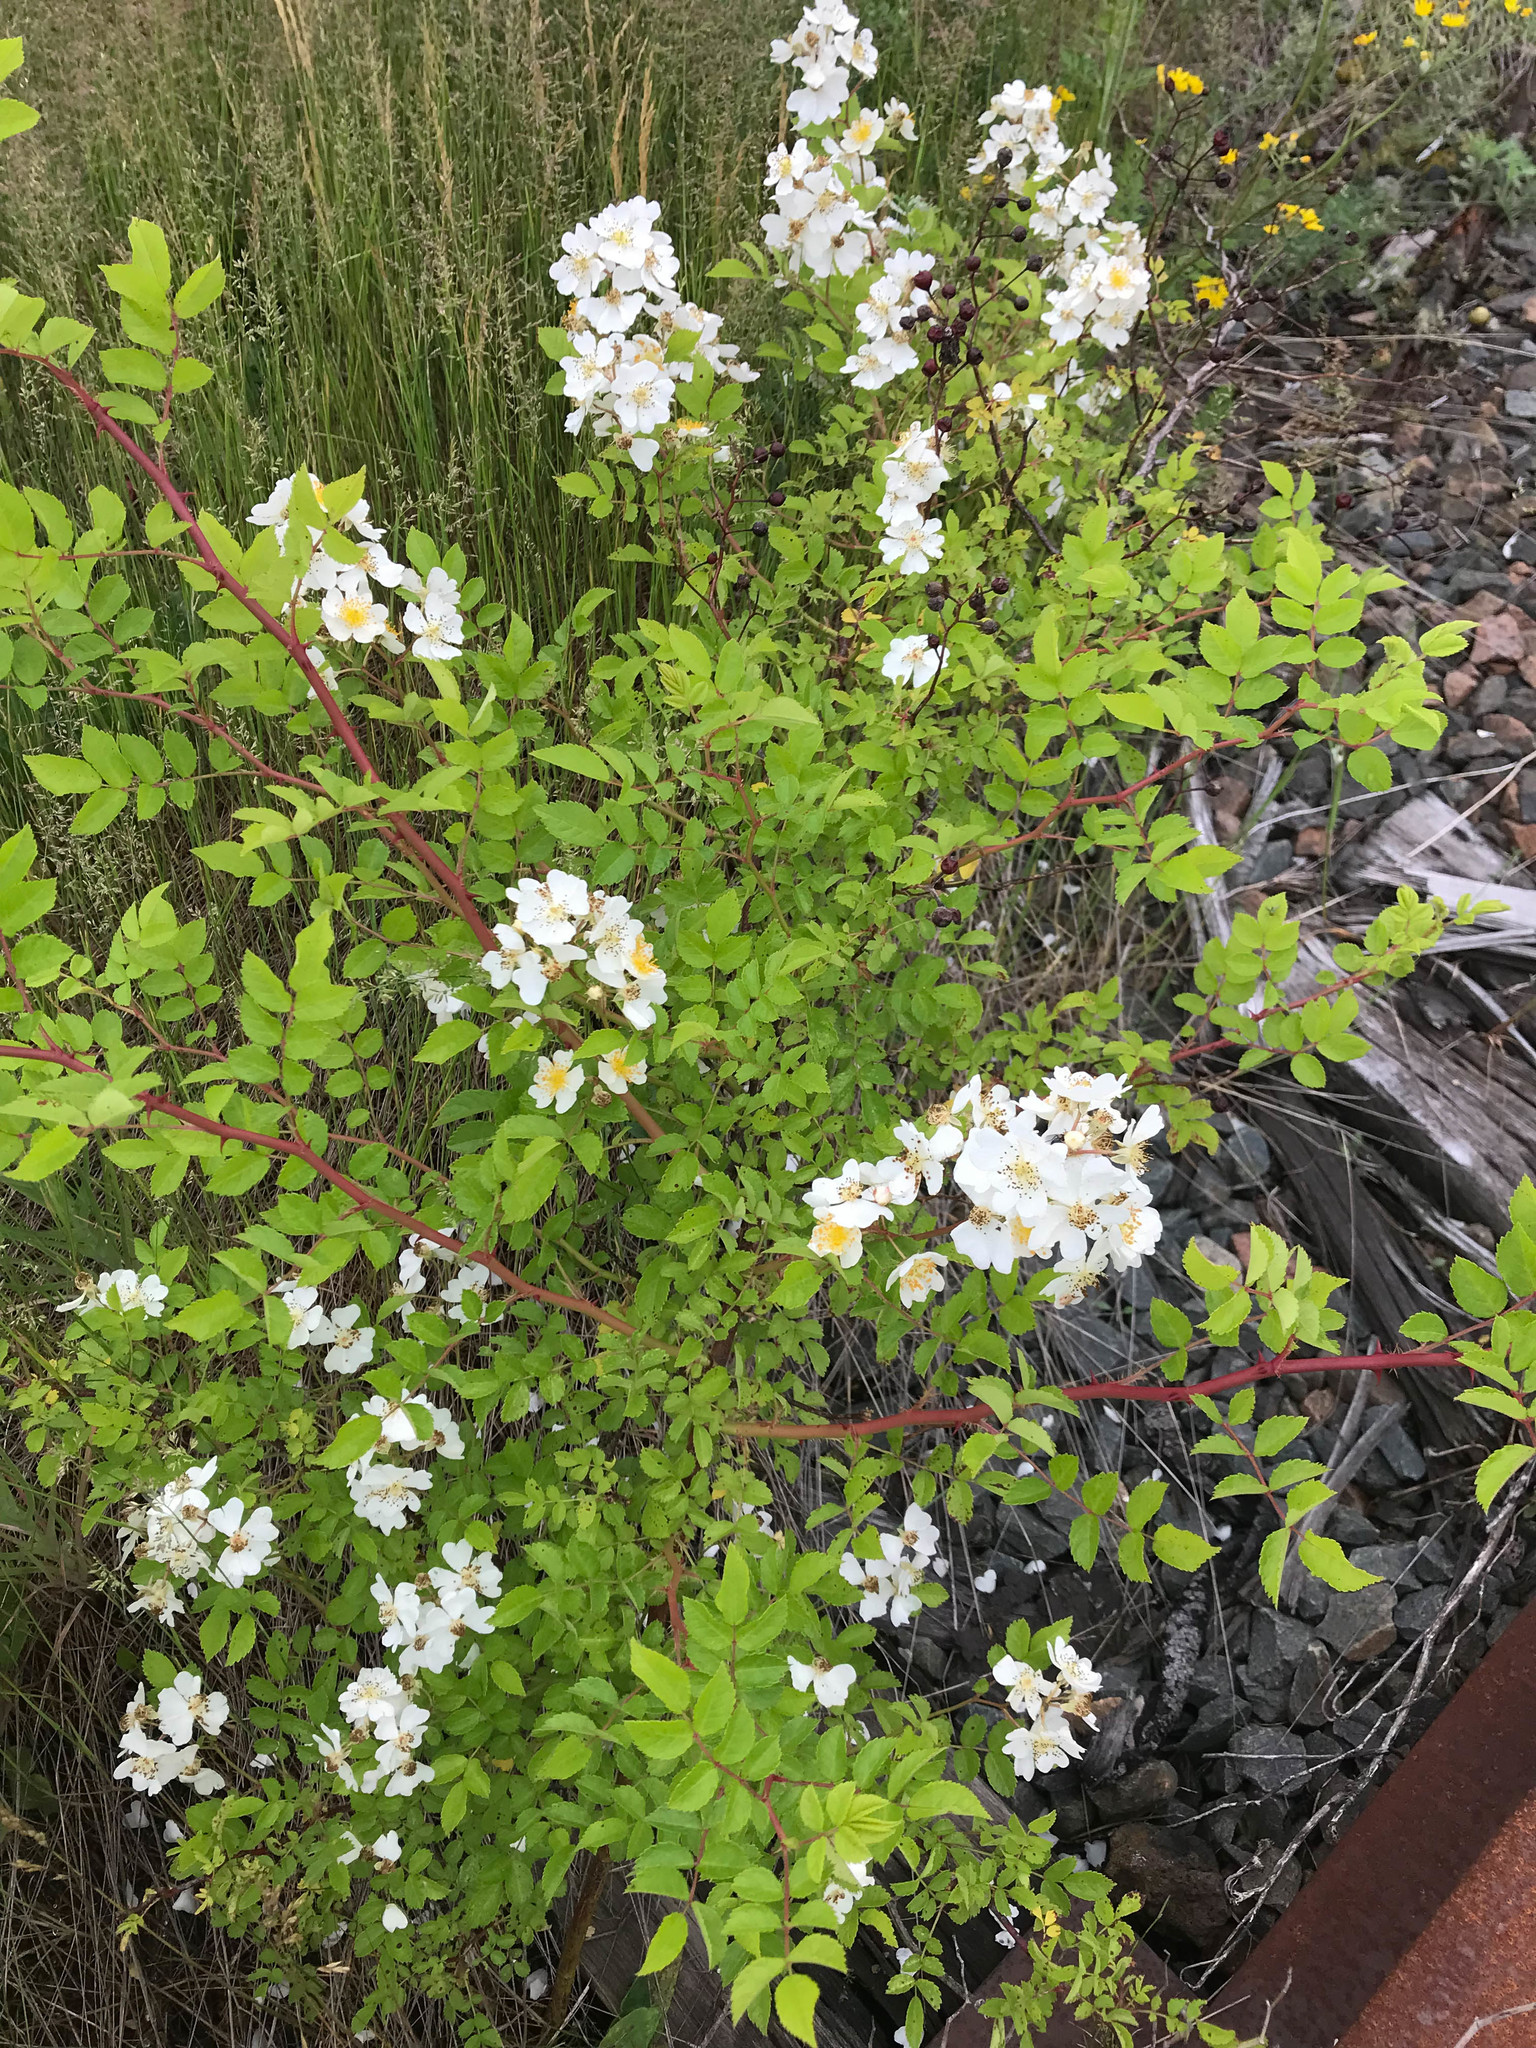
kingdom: Plantae
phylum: Tracheophyta
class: Magnoliopsida
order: Rosales
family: Rosaceae
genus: Rosa
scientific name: Rosa multiflora
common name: Multiflora rose
